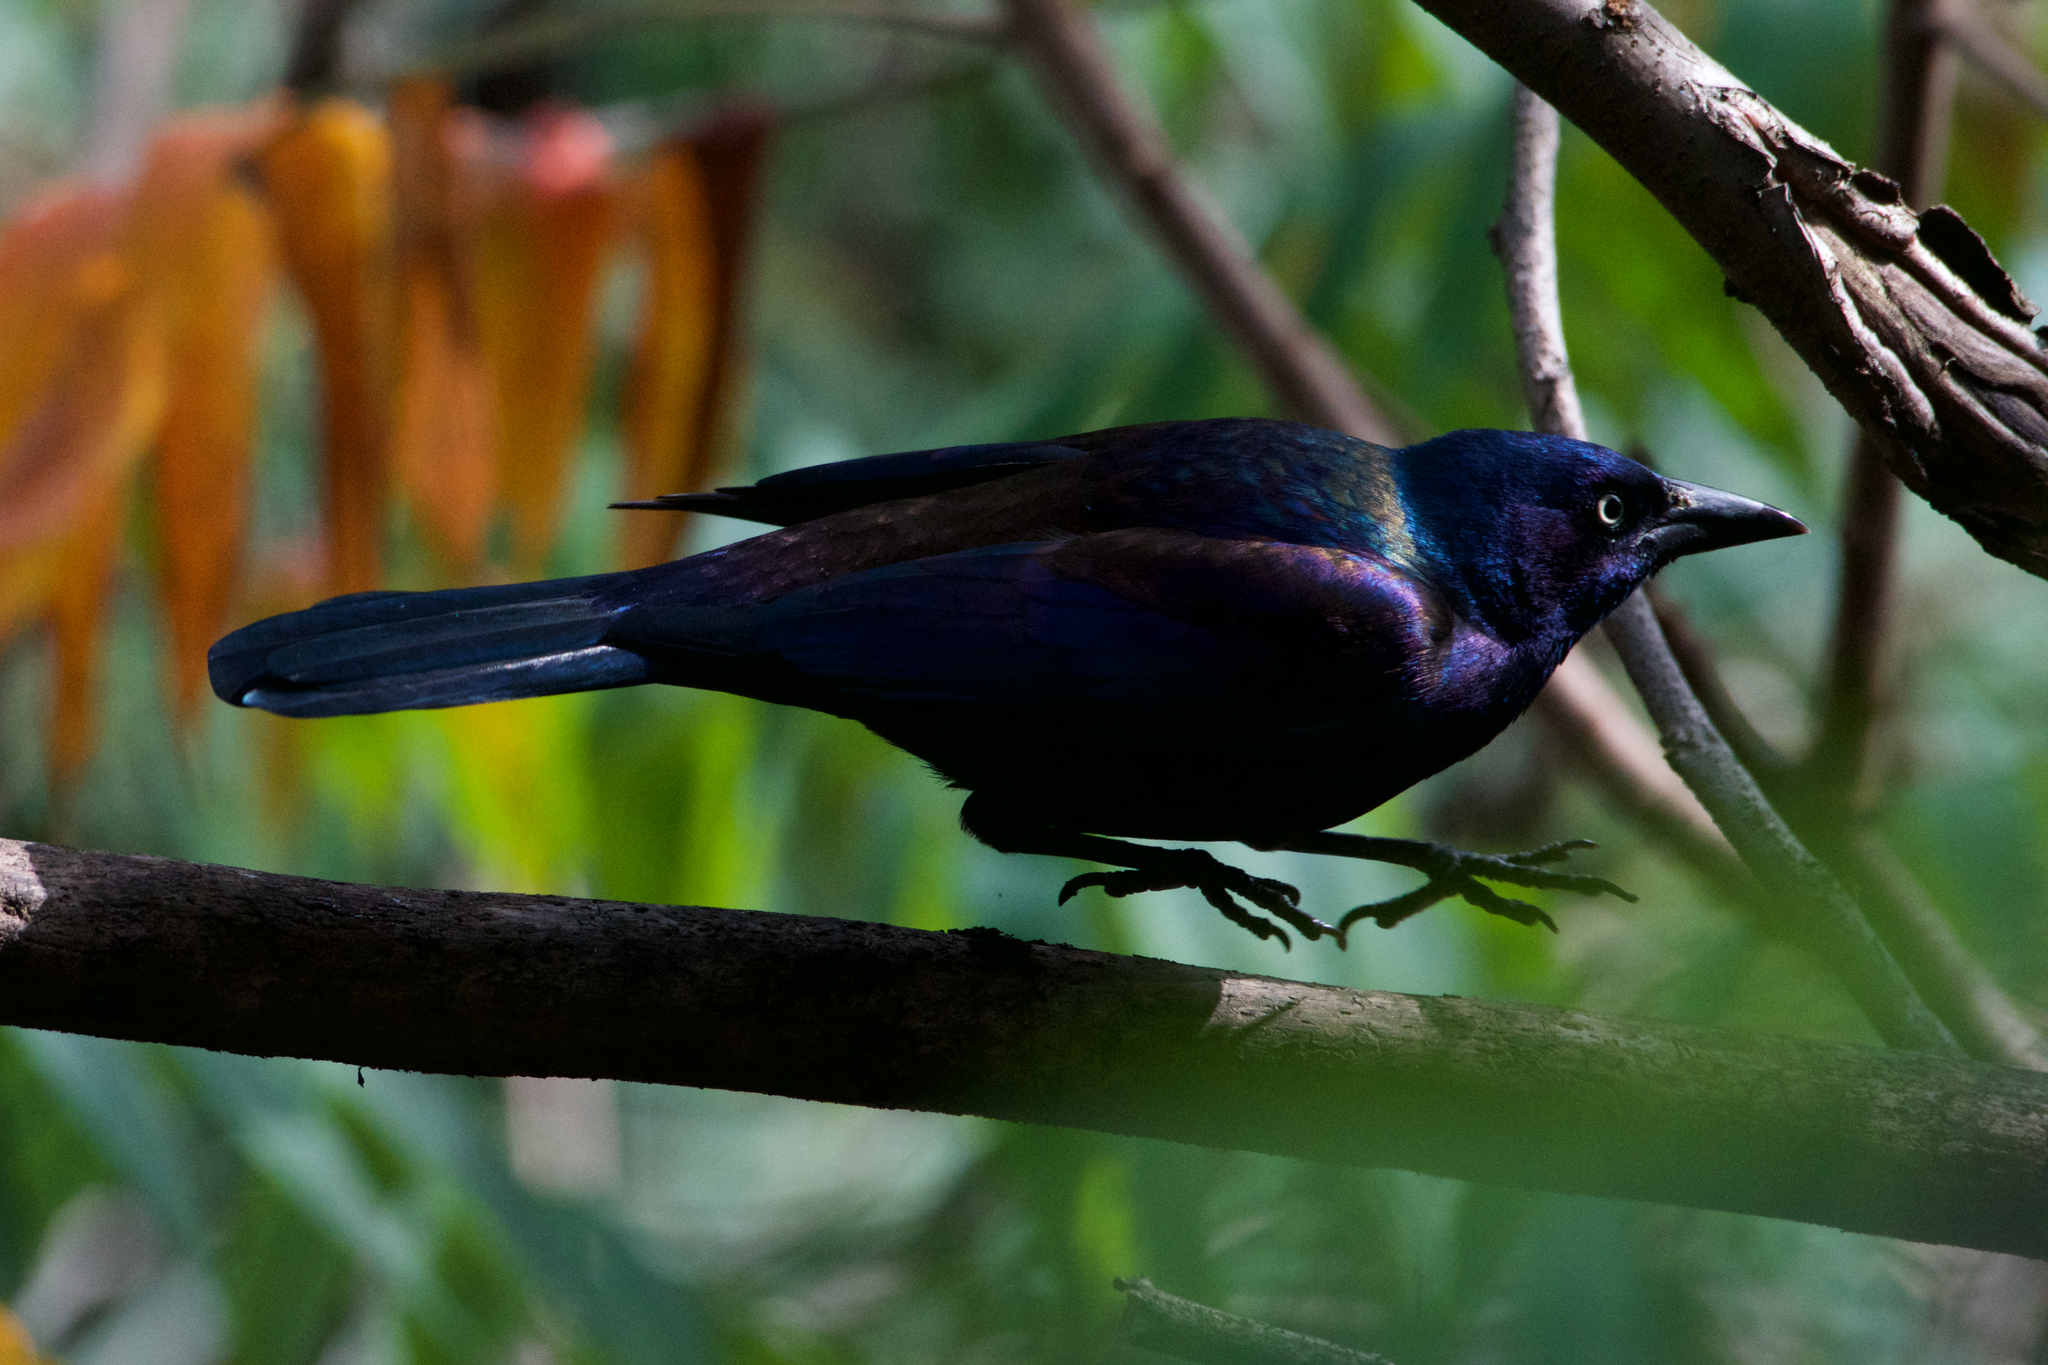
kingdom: Animalia
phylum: Chordata
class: Aves
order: Passeriformes
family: Icteridae
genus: Quiscalus
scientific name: Quiscalus quiscula
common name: Common grackle
